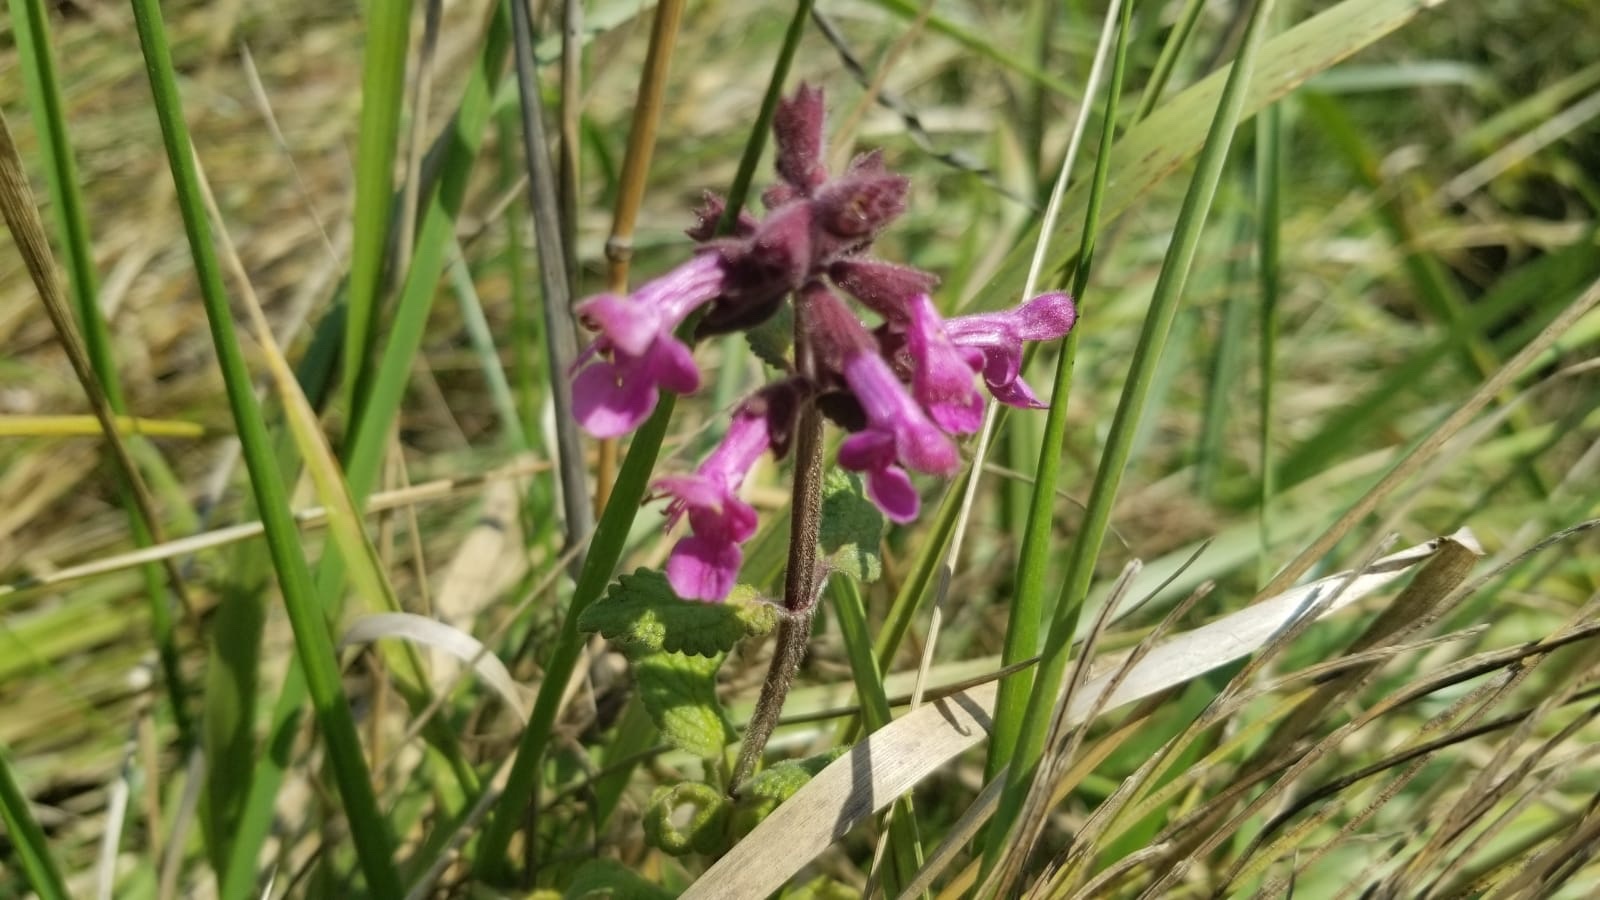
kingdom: Plantae
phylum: Tracheophyta
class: Magnoliopsida
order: Lamiales
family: Lamiaceae
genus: Stachys
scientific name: Stachys chamissonis
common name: Coastal hedge-nettle
